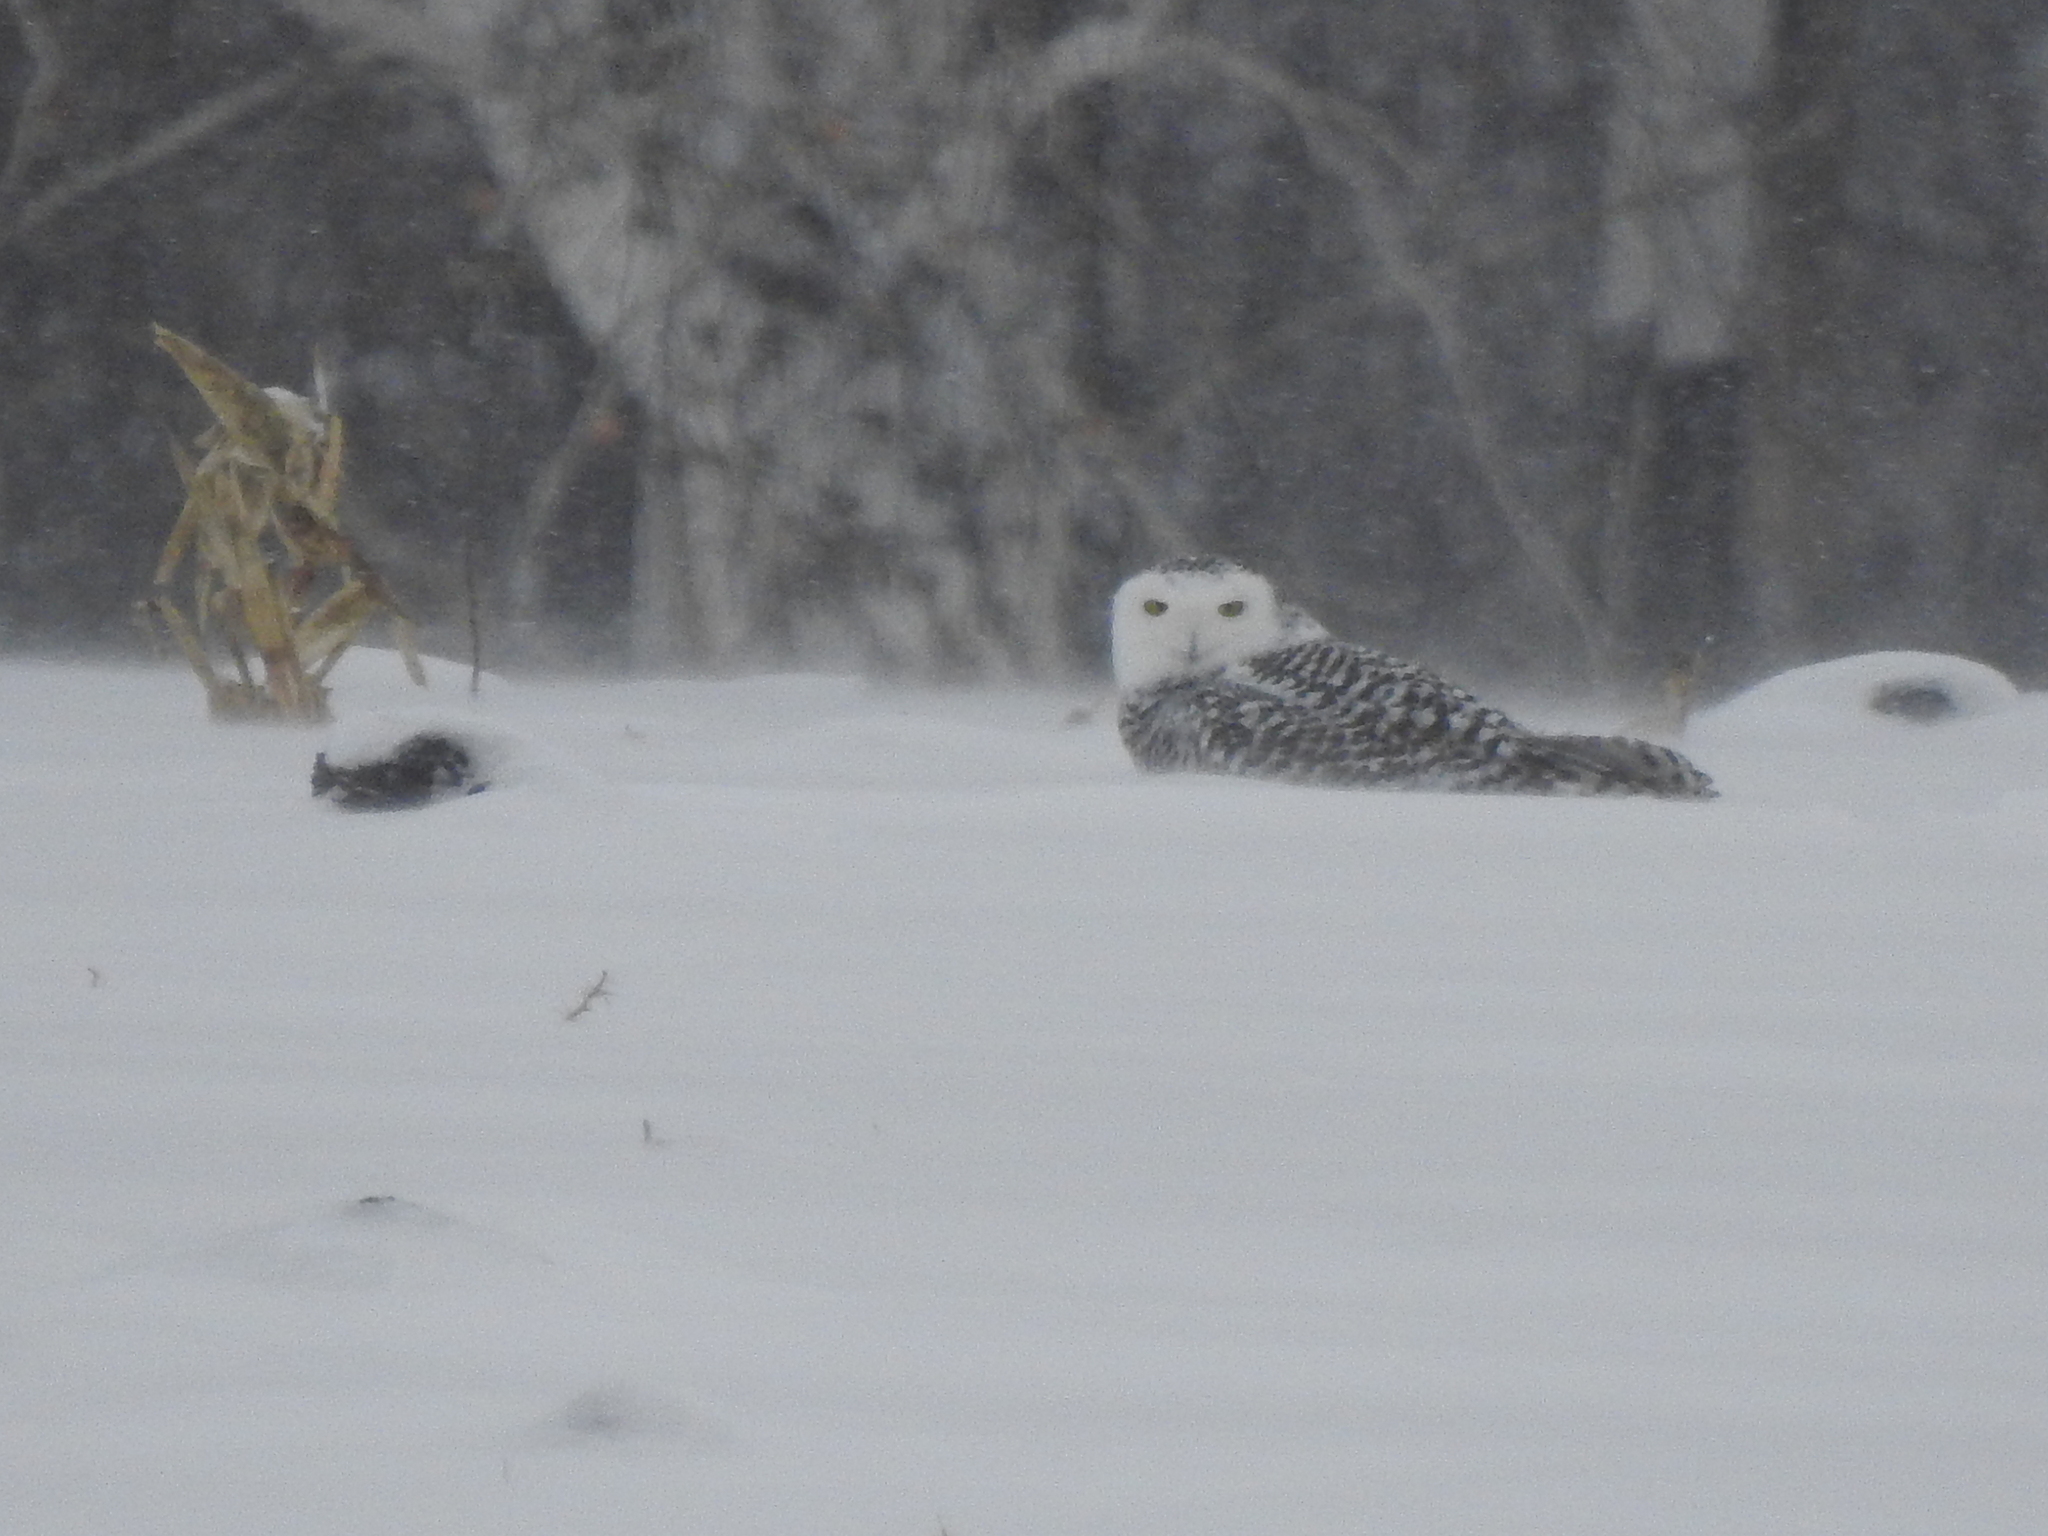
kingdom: Animalia
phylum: Chordata
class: Aves
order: Strigiformes
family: Strigidae
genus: Bubo
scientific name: Bubo scandiacus
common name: Snowy owl
